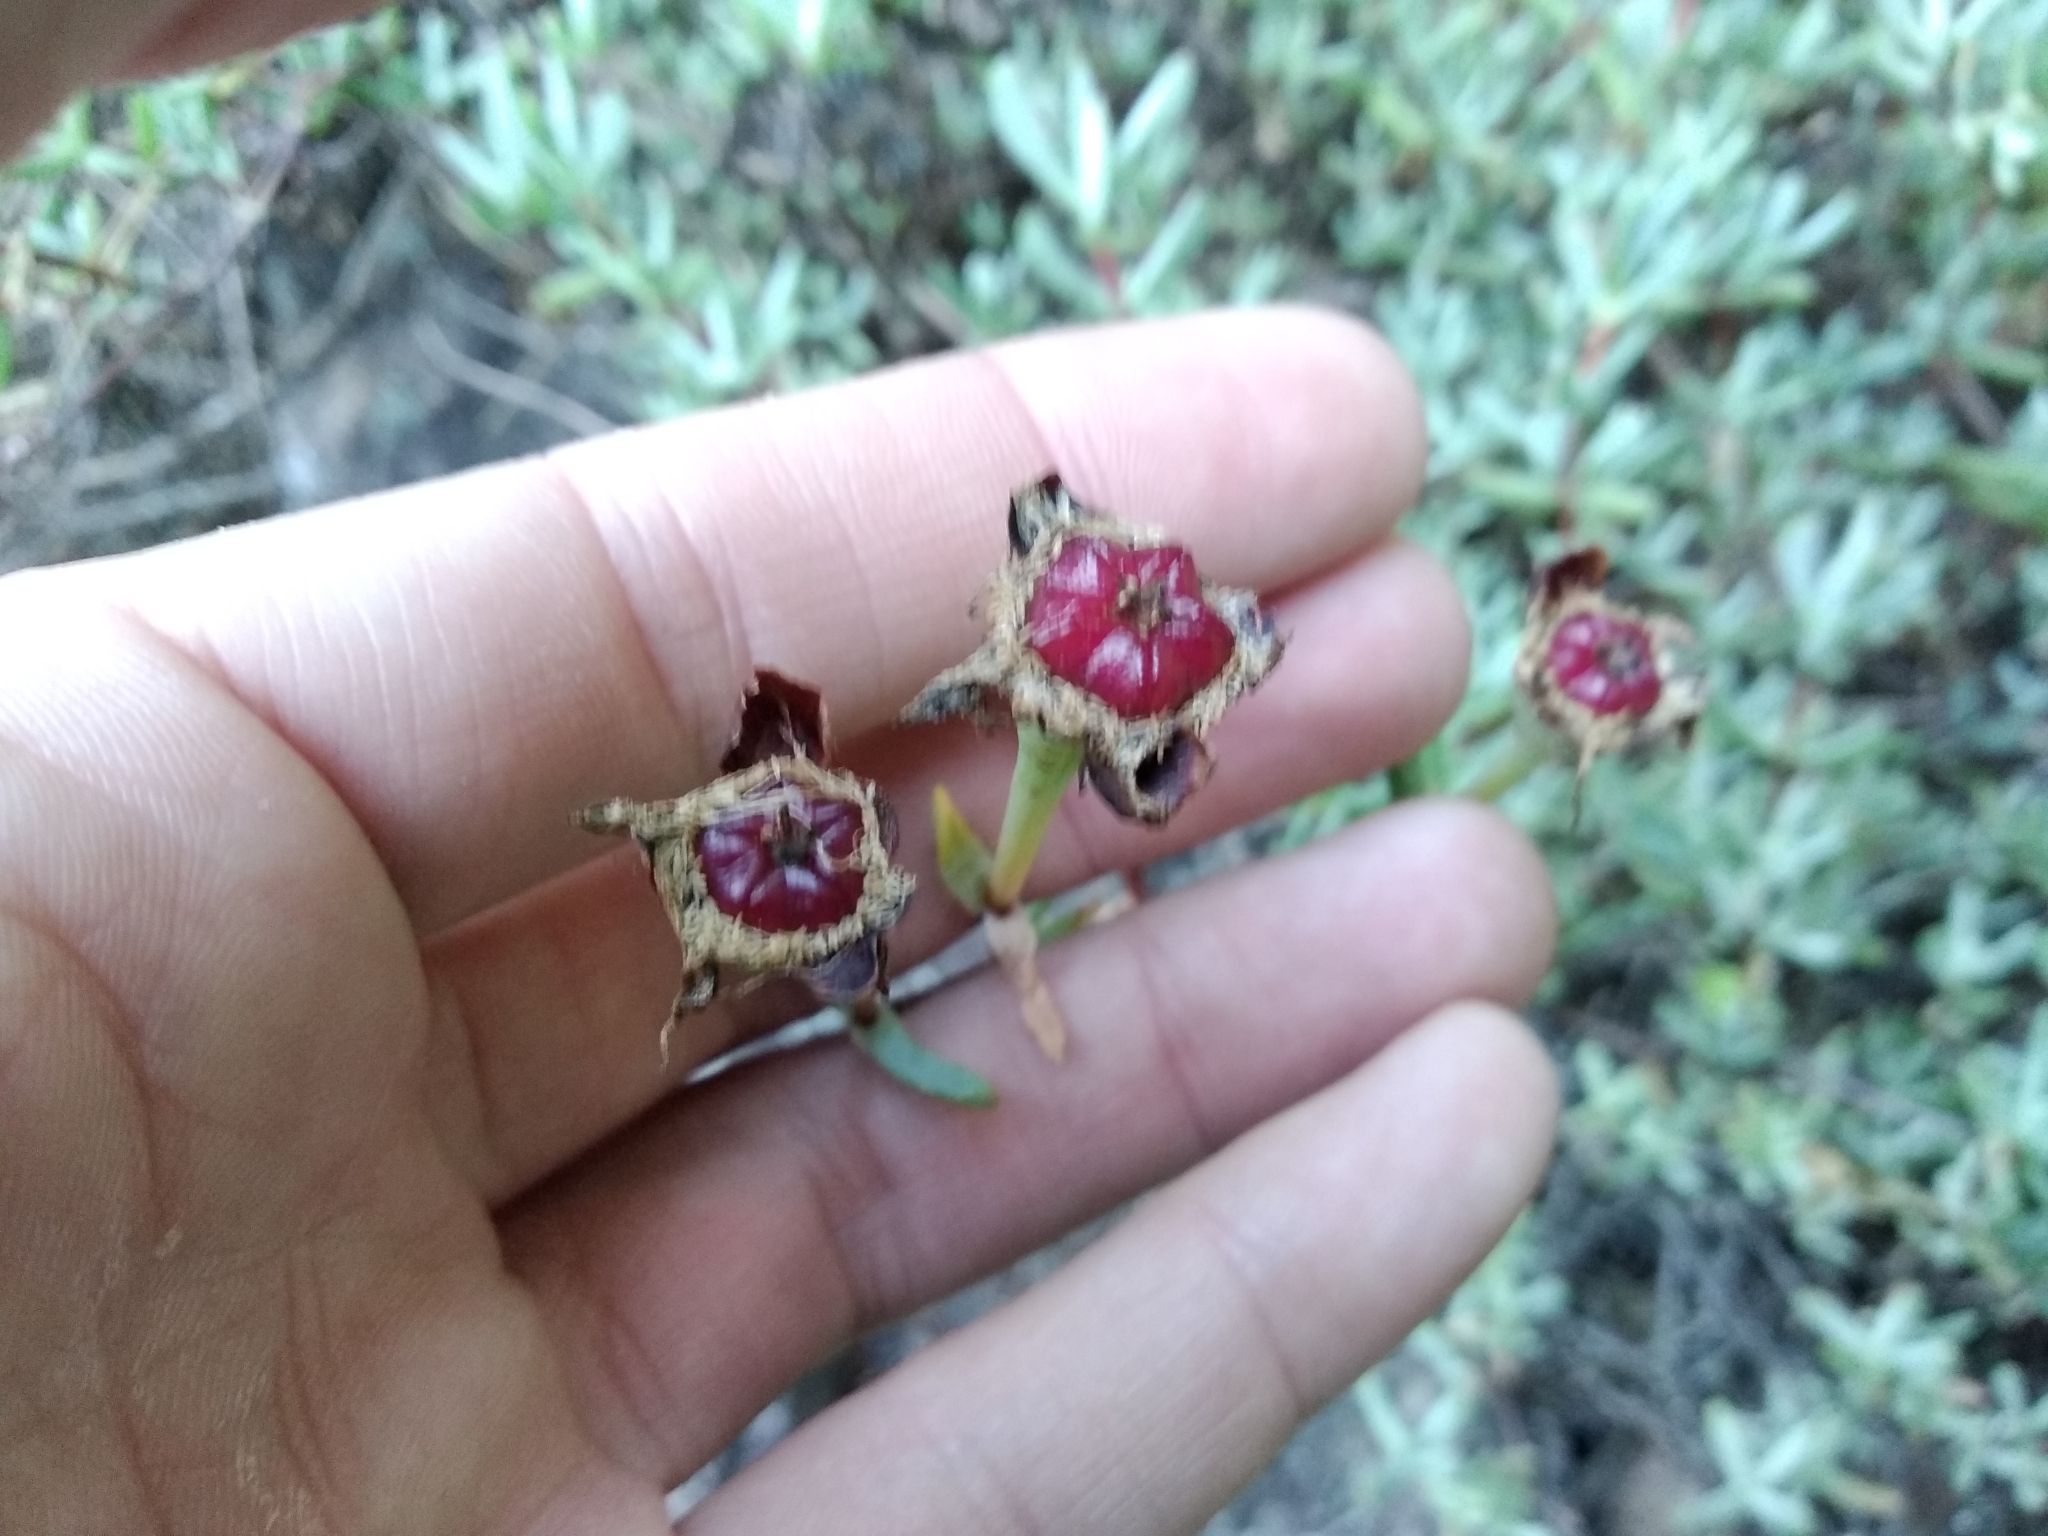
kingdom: Plantae
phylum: Tracheophyta
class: Magnoliopsida
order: Caryophyllales
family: Aizoaceae
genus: Oscularia
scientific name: Oscularia falciformis
